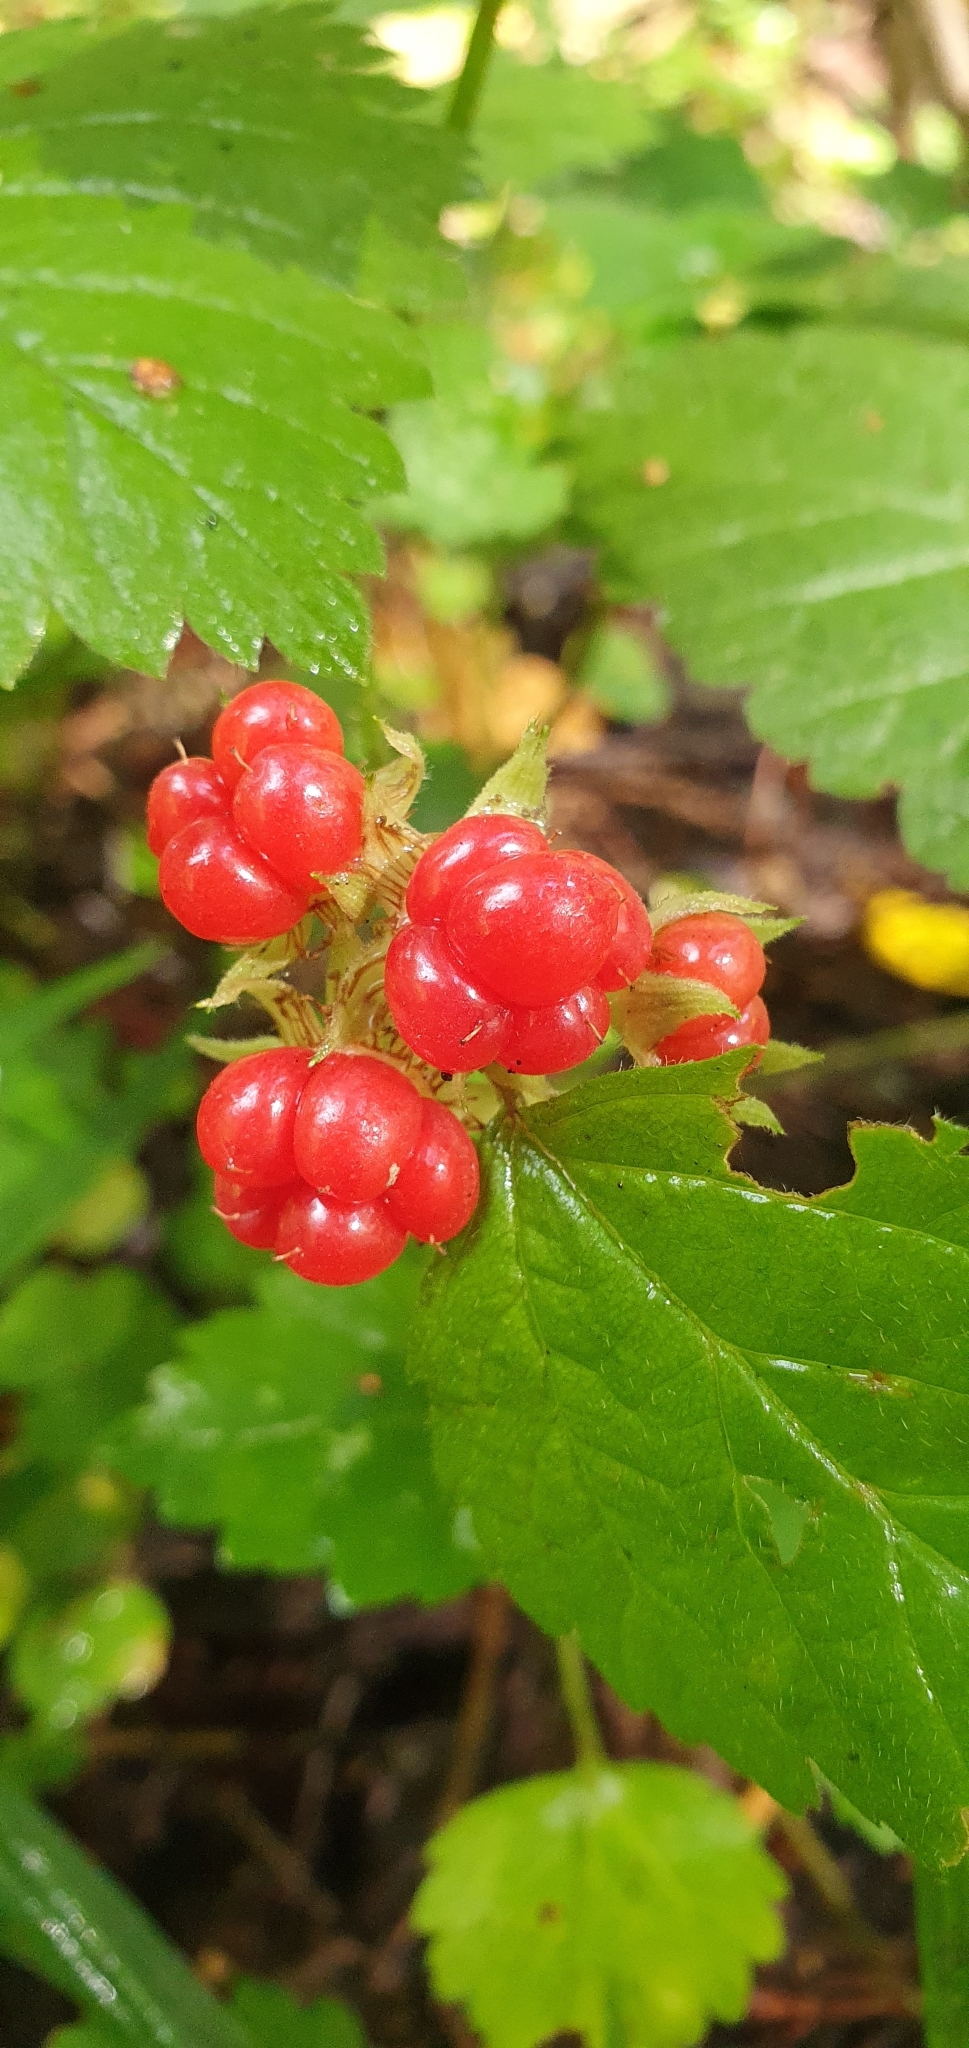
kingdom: Plantae
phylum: Tracheophyta
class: Magnoliopsida
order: Rosales
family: Rosaceae
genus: Rubus
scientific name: Rubus saxatilis
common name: Stone bramble
